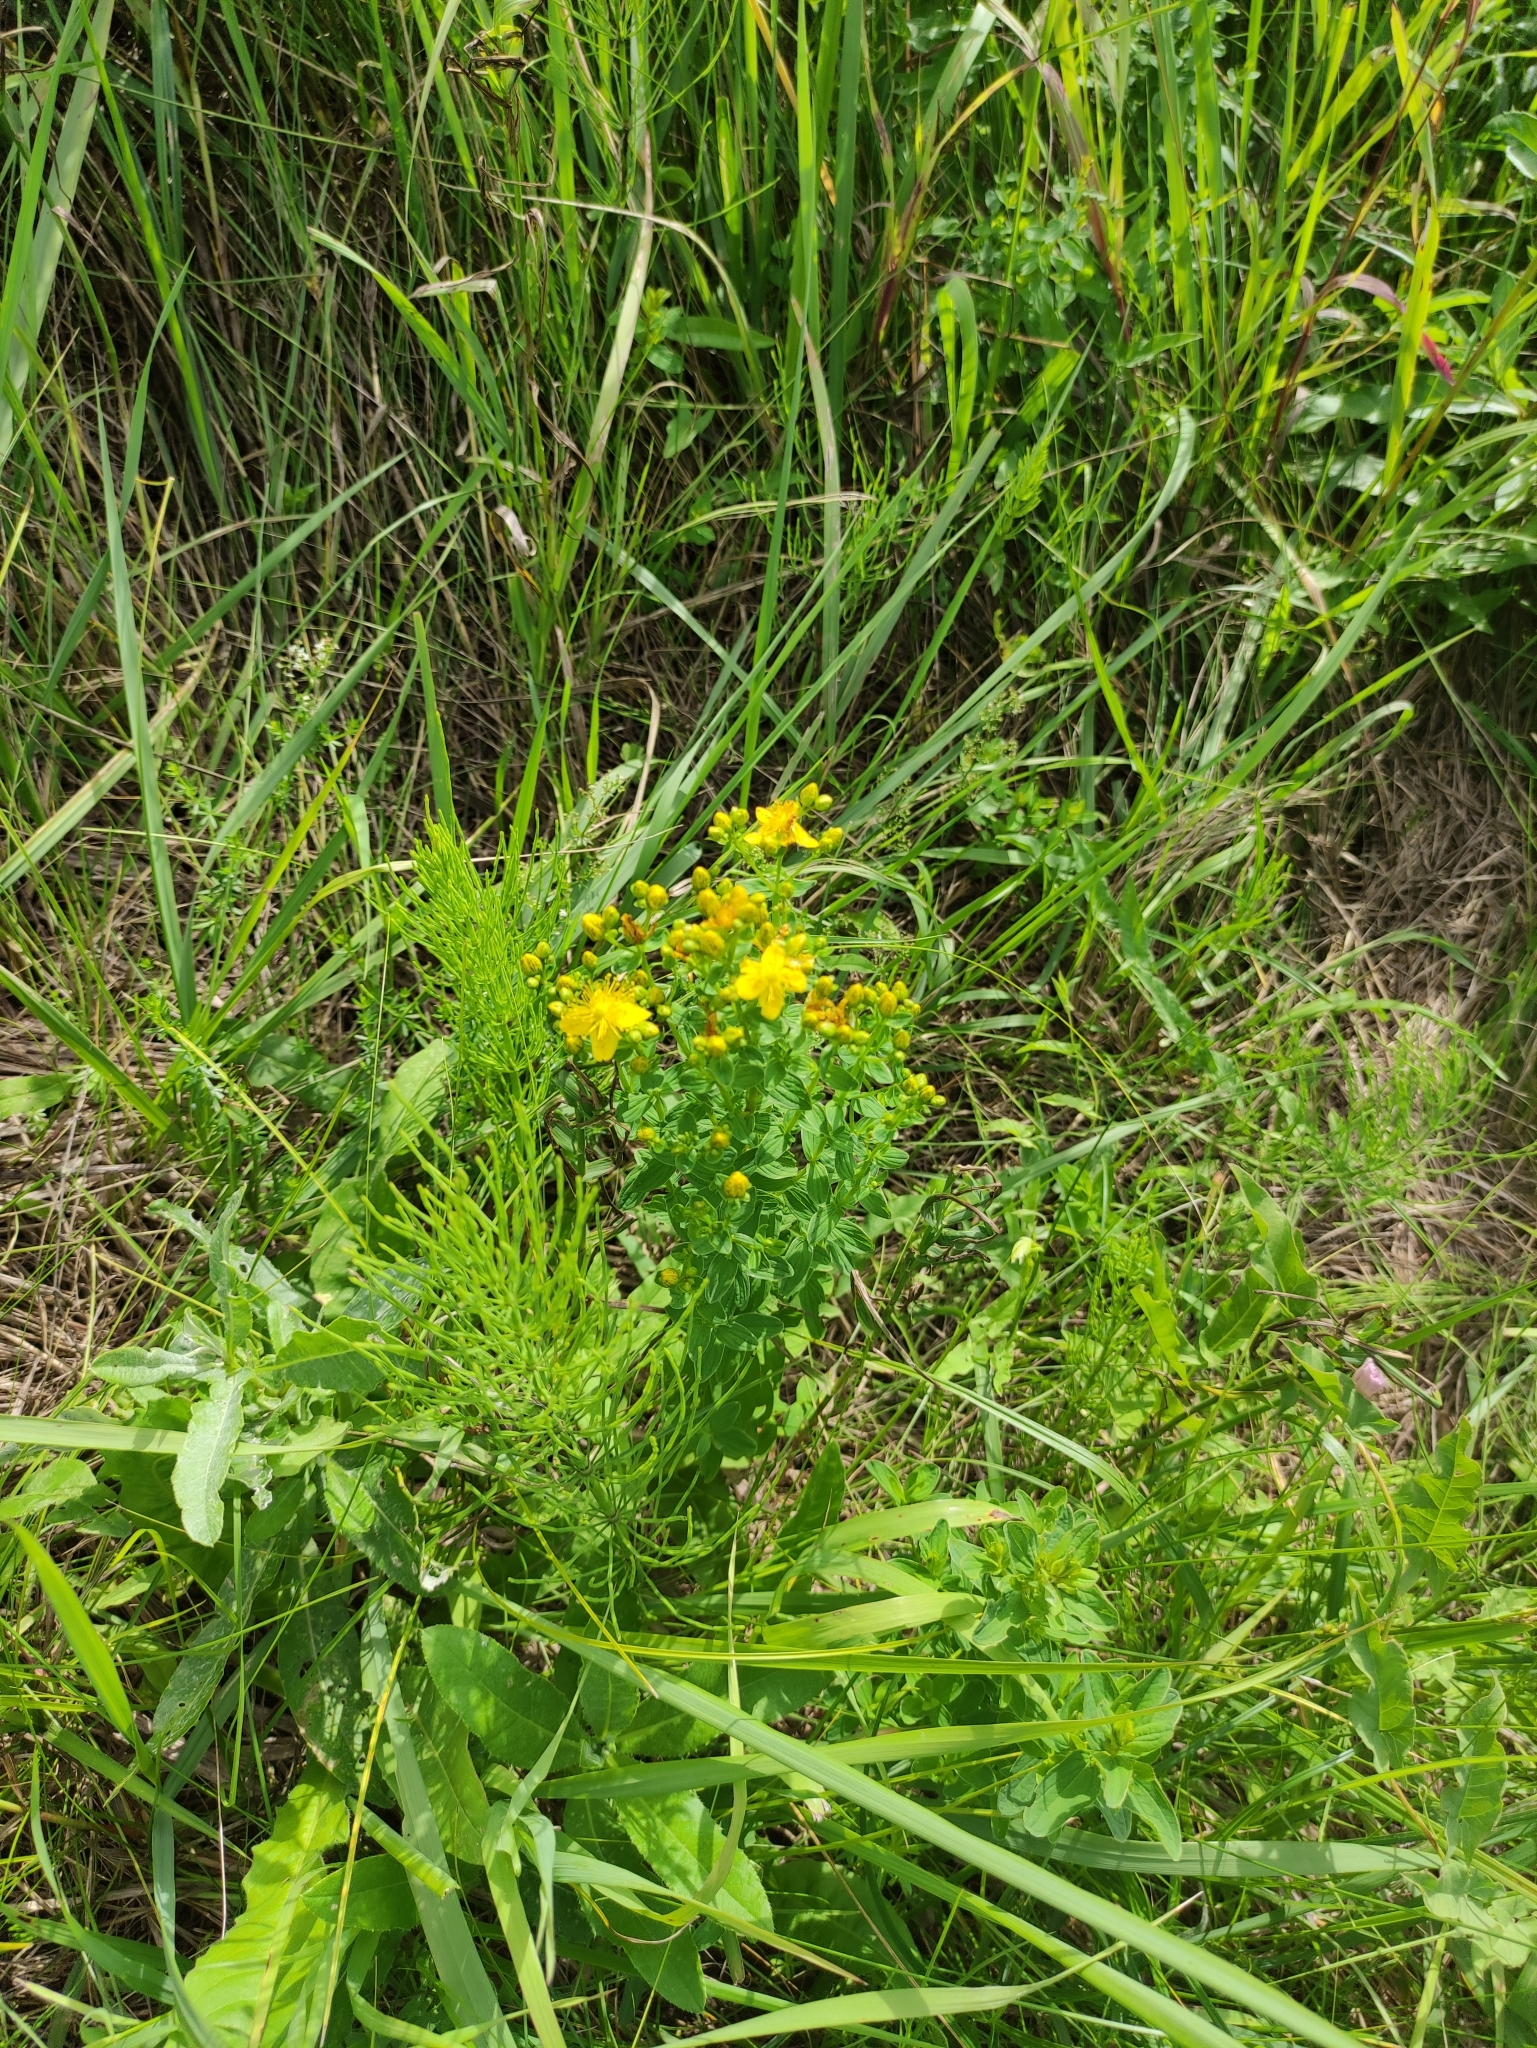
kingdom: Plantae
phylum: Tracheophyta
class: Magnoliopsida
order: Malpighiales
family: Hypericaceae
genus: Hypericum
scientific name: Hypericum maculatum
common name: Imperforate st. john's-wort
